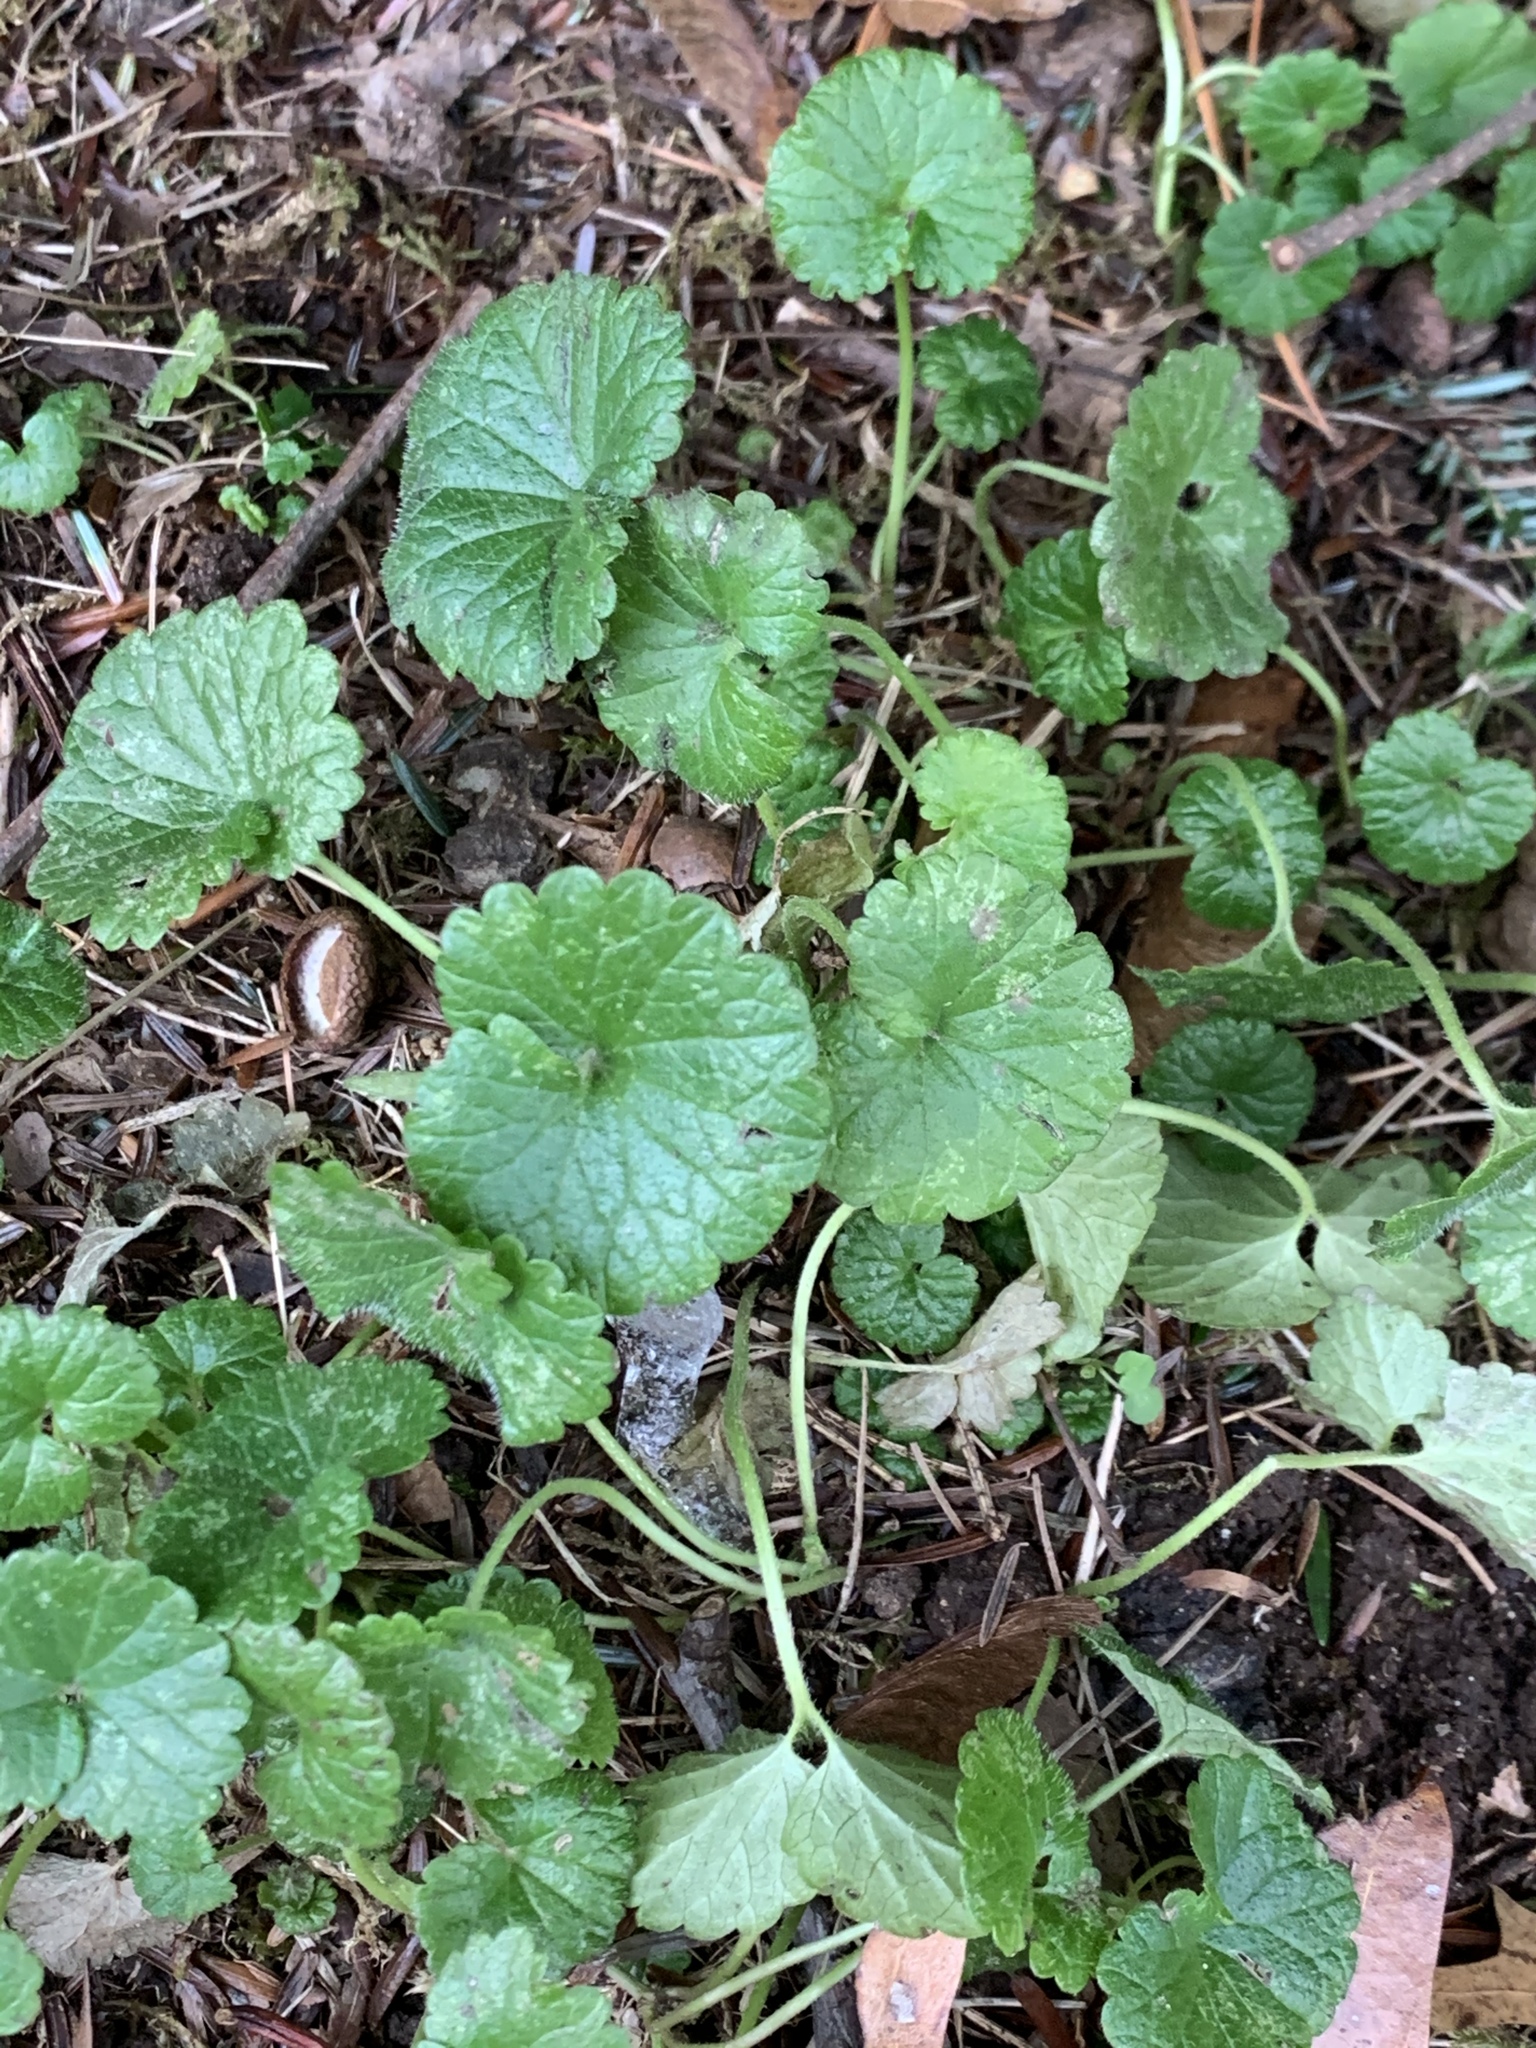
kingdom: Plantae
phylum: Tracheophyta
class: Magnoliopsida
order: Lamiales
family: Lamiaceae
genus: Glechoma
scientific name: Glechoma hederacea
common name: Ground ivy
